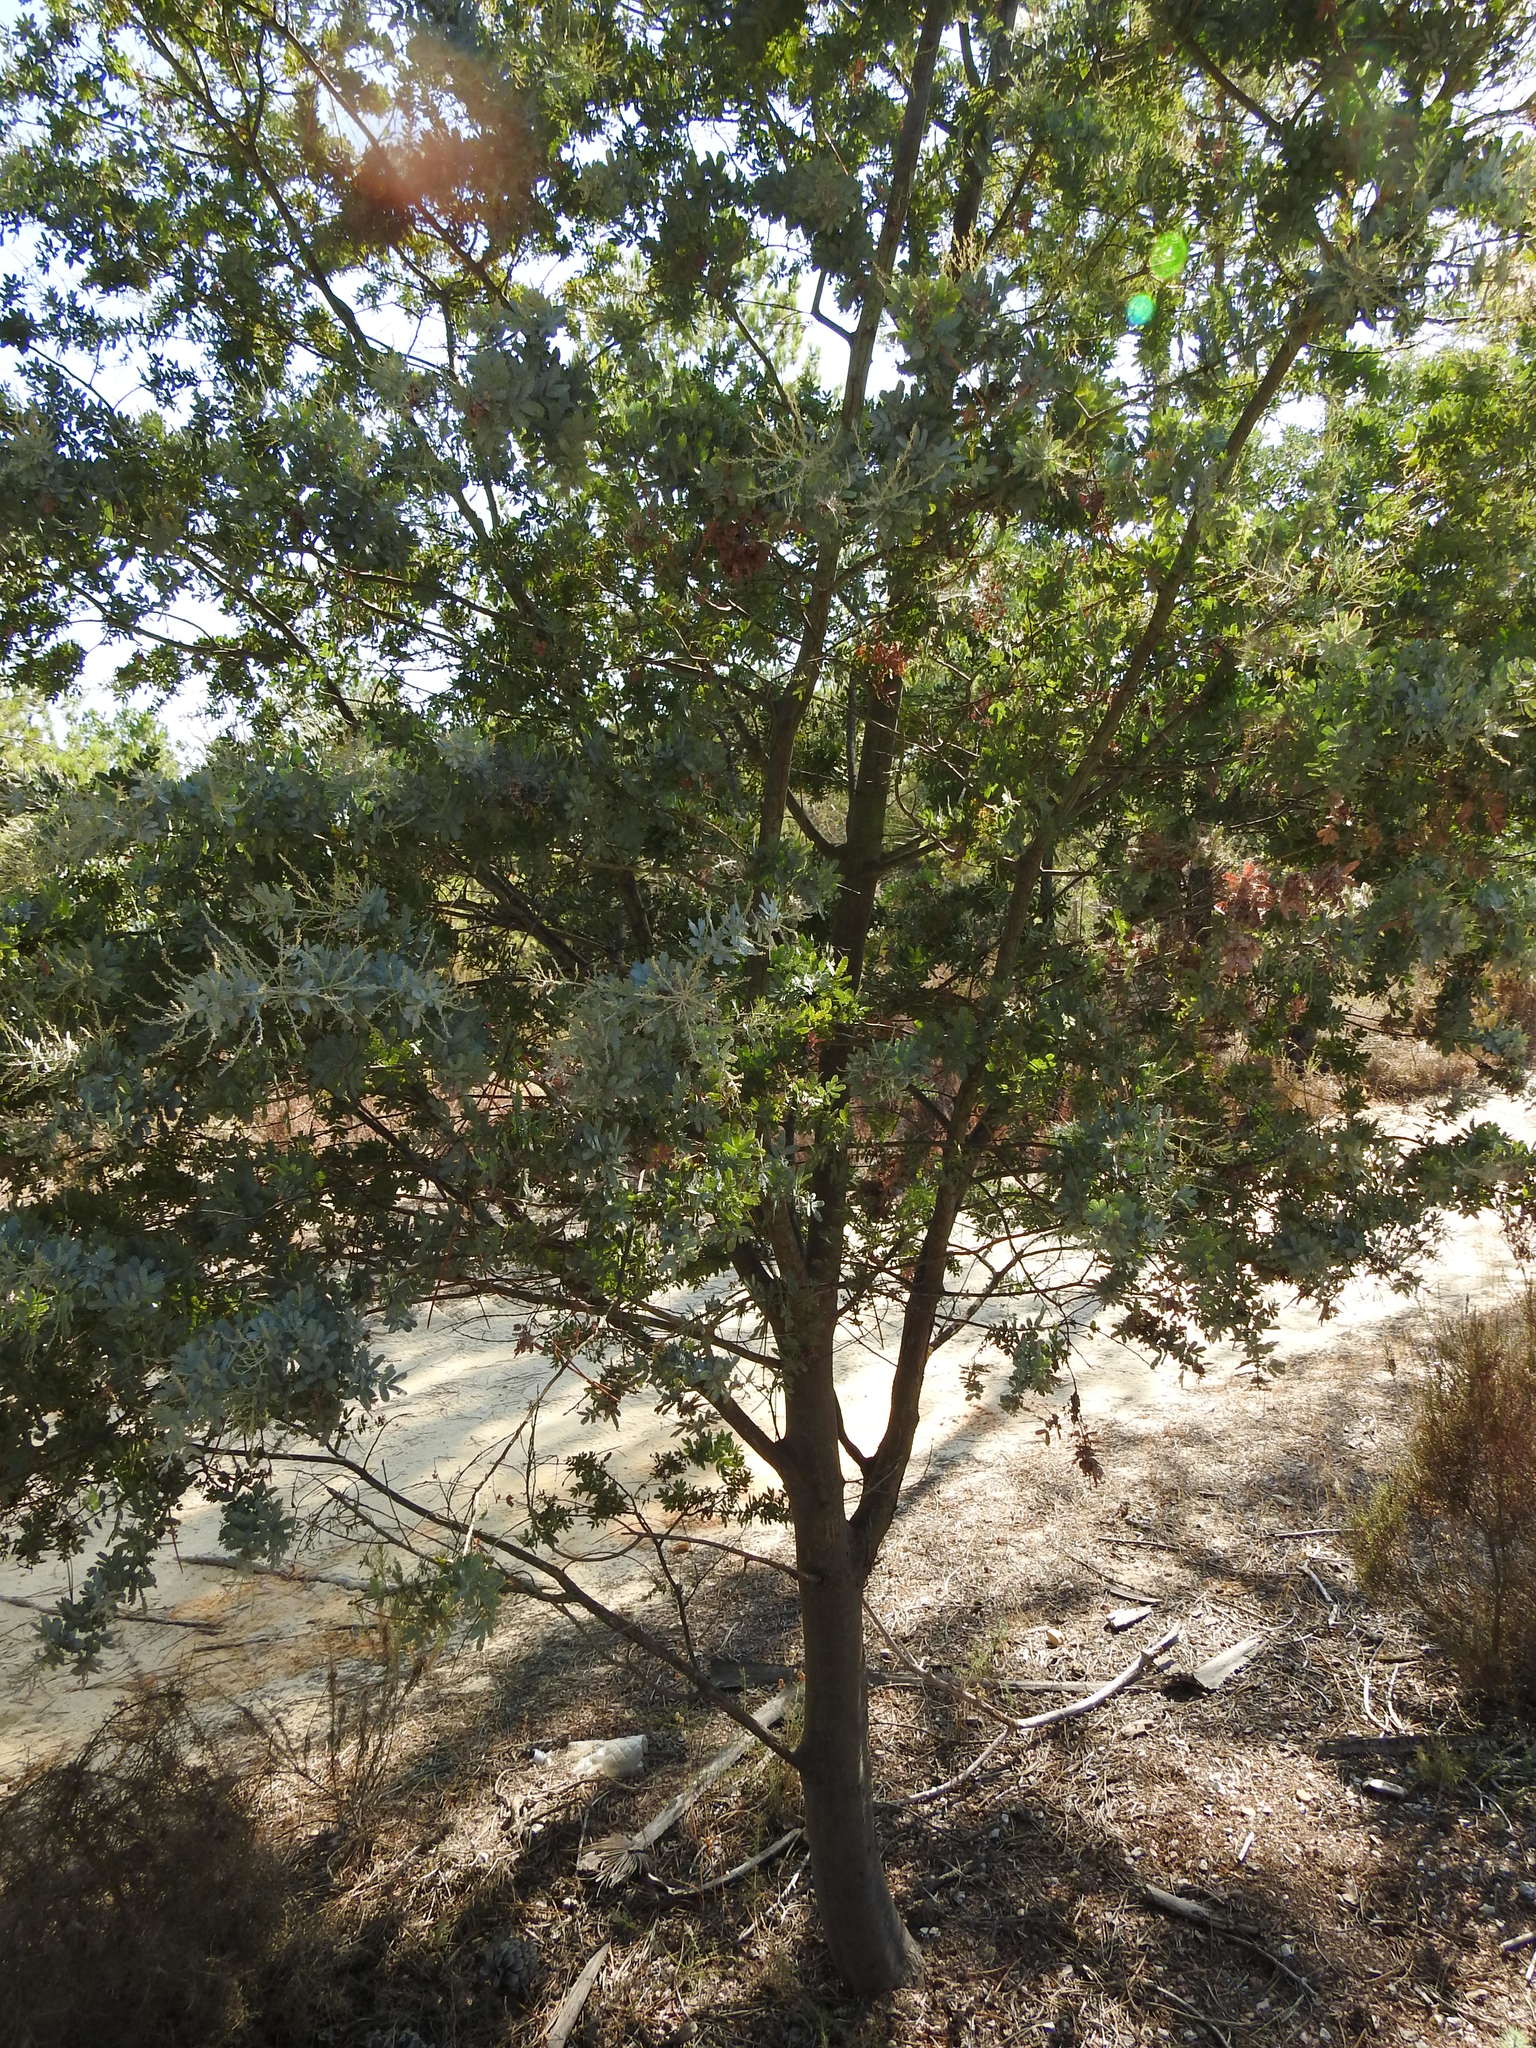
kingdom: Plantae
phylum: Tracheophyta
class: Magnoliopsida
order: Fabales
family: Fabaceae
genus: Acacia
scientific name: Acacia baileyana
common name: Cootamundra wattle
